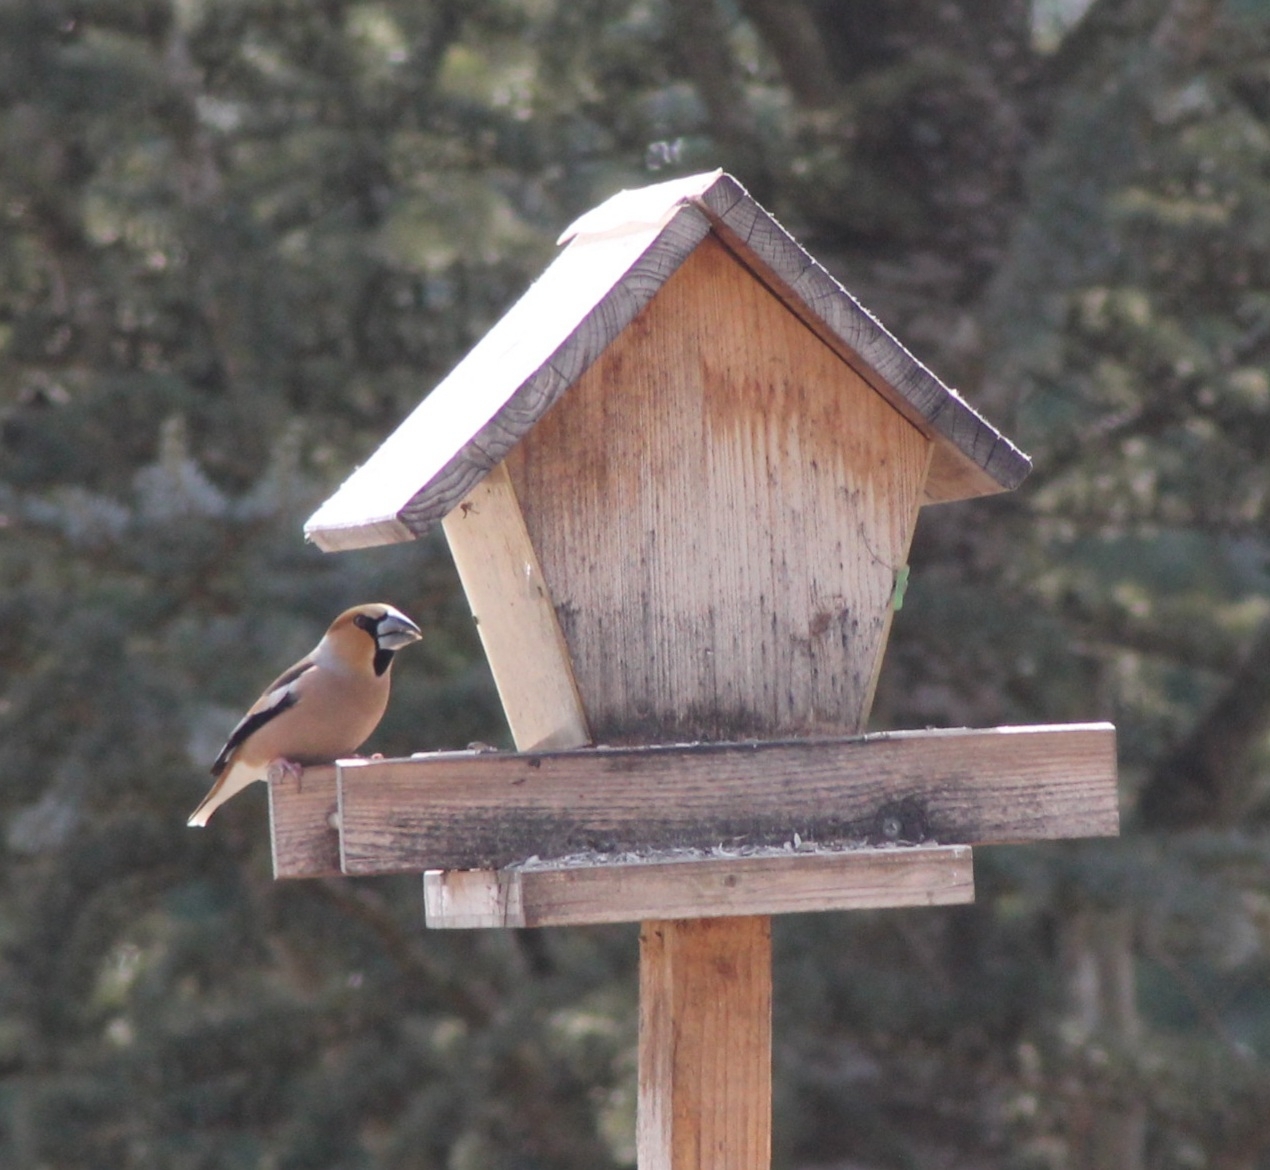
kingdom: Animalia
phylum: Chordata
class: Aves
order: Passeriformes
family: Fringillidae
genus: Coccothraustes
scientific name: Coccothraustes coccothraustes
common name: Hawfinch
